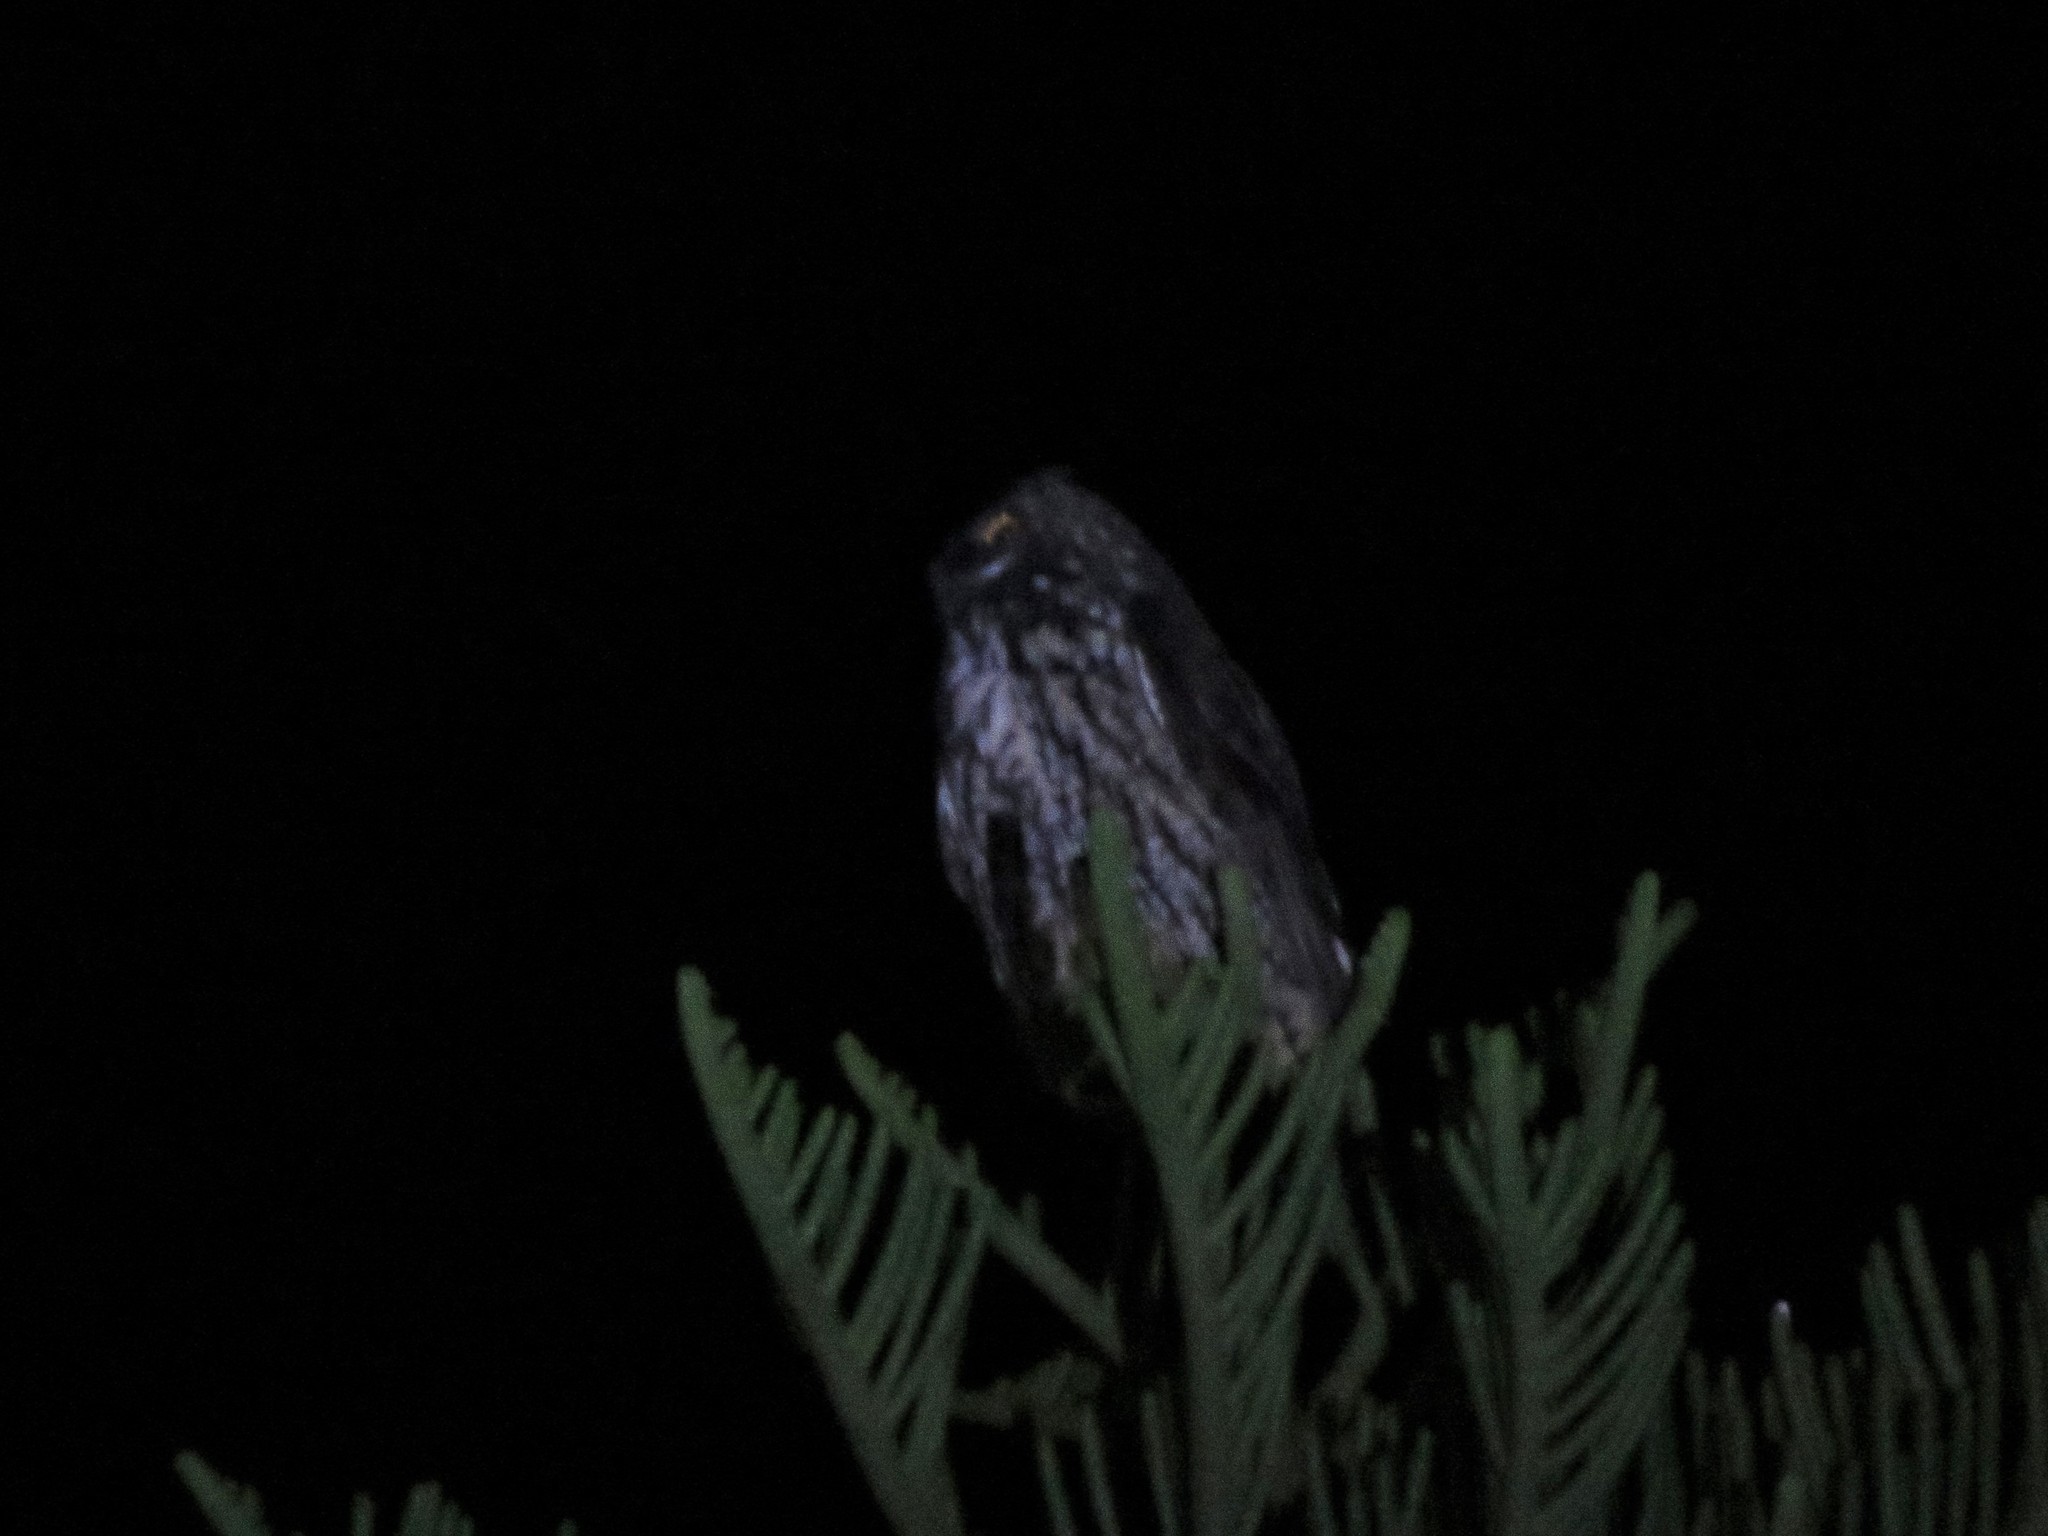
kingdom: Animalia
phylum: Chordata
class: Aves
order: Strigiformes
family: Strigidae
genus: Asio
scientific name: Asio stygius
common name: Stygian owl
